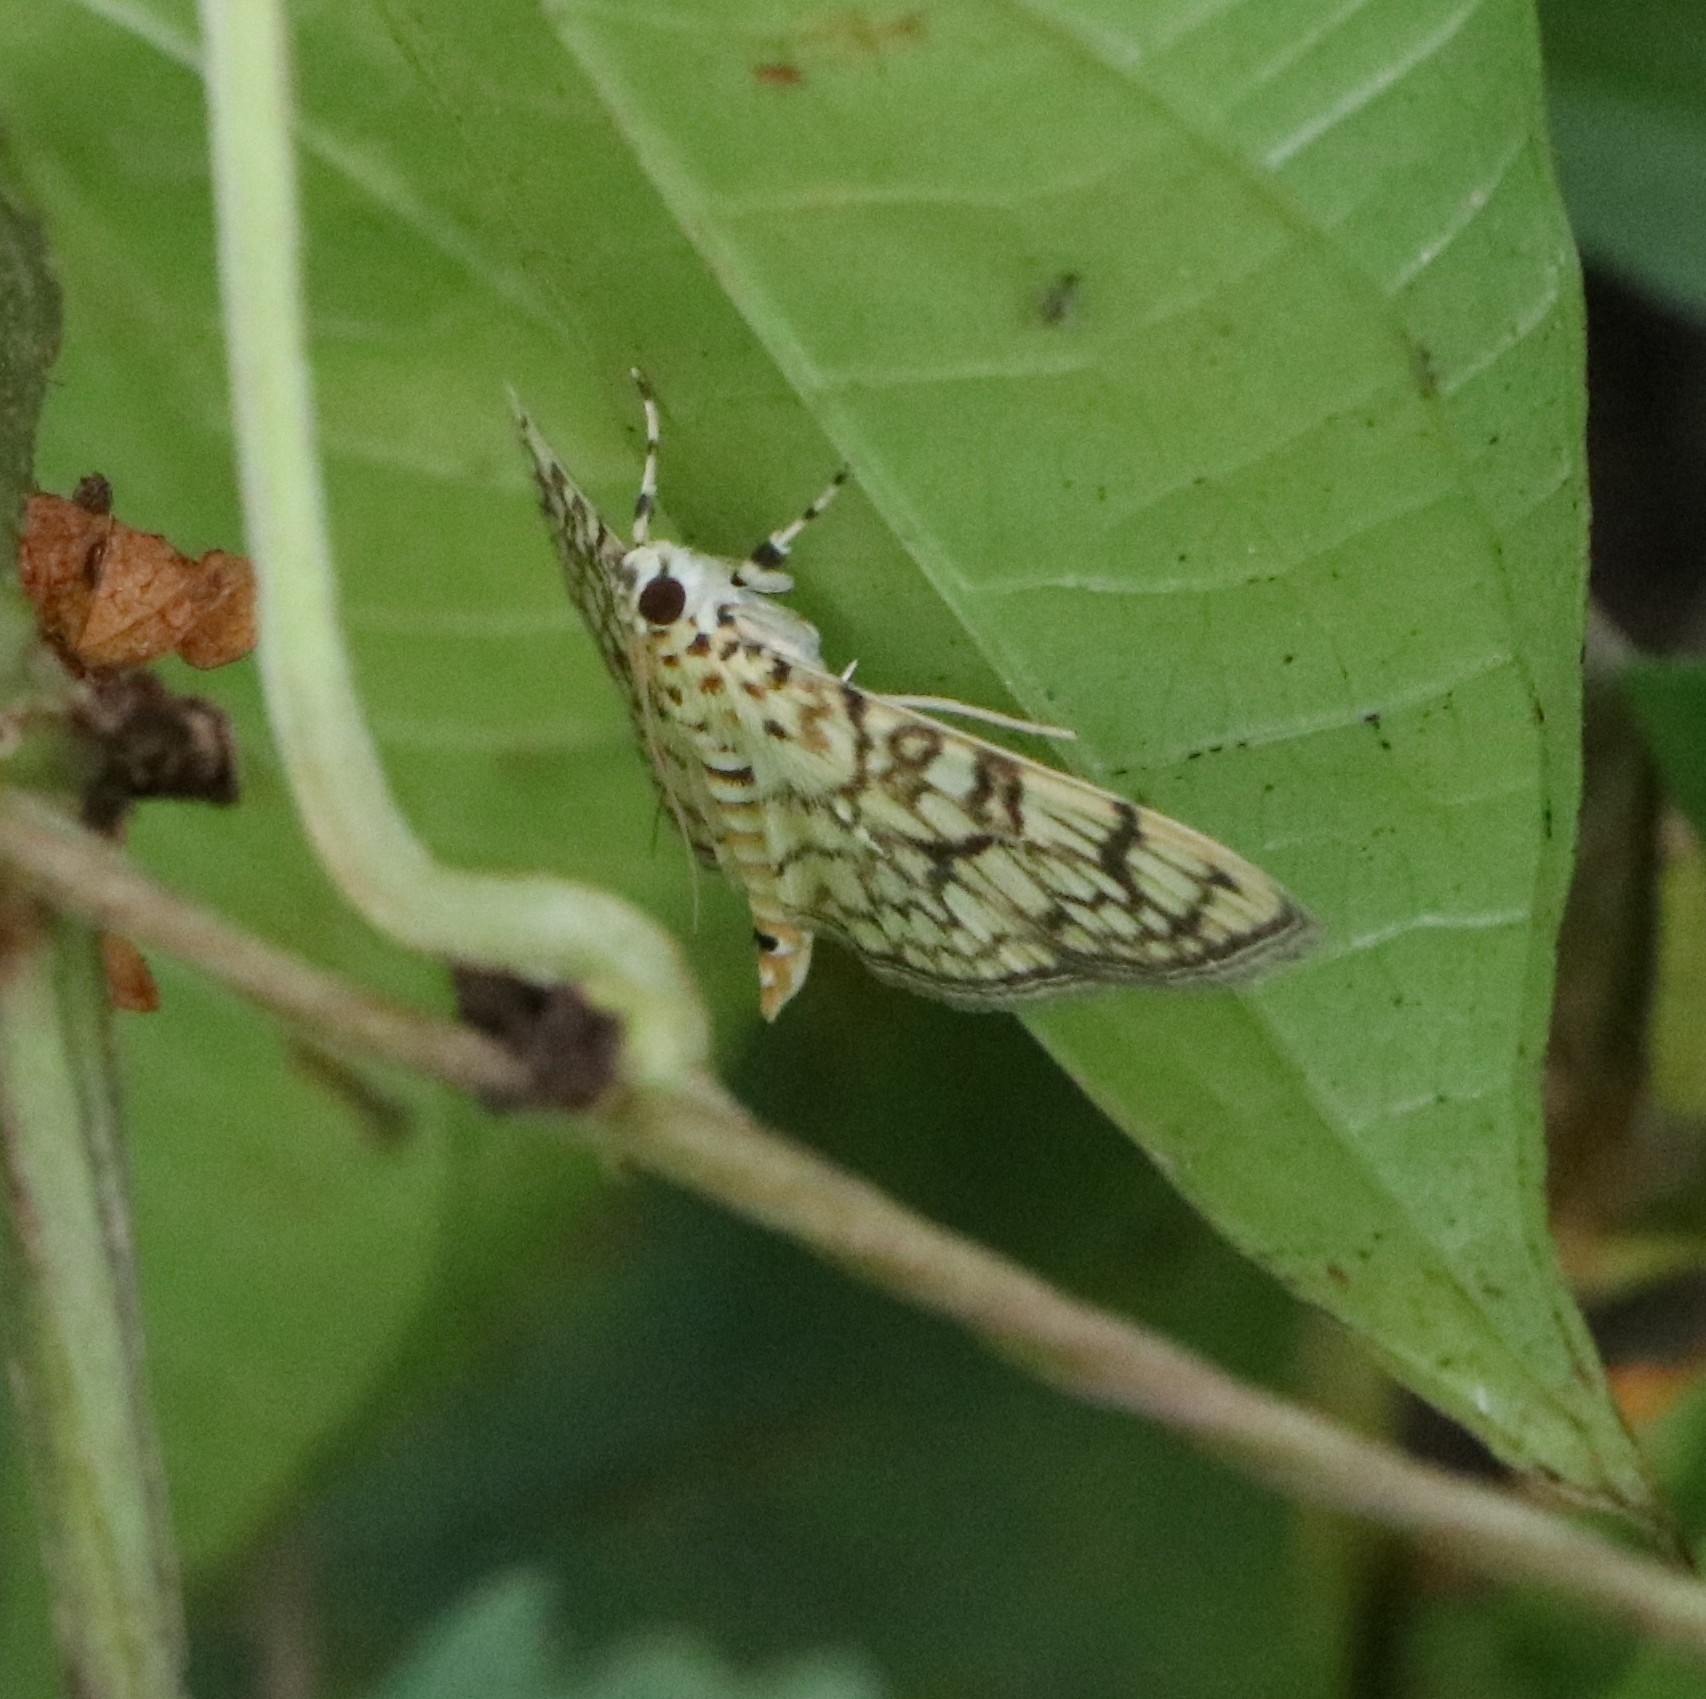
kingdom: Animalia
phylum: Arthropoda
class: Insecta
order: Lepidoptera
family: Crambidae
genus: Haritalodes
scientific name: Haritalodes derogata
